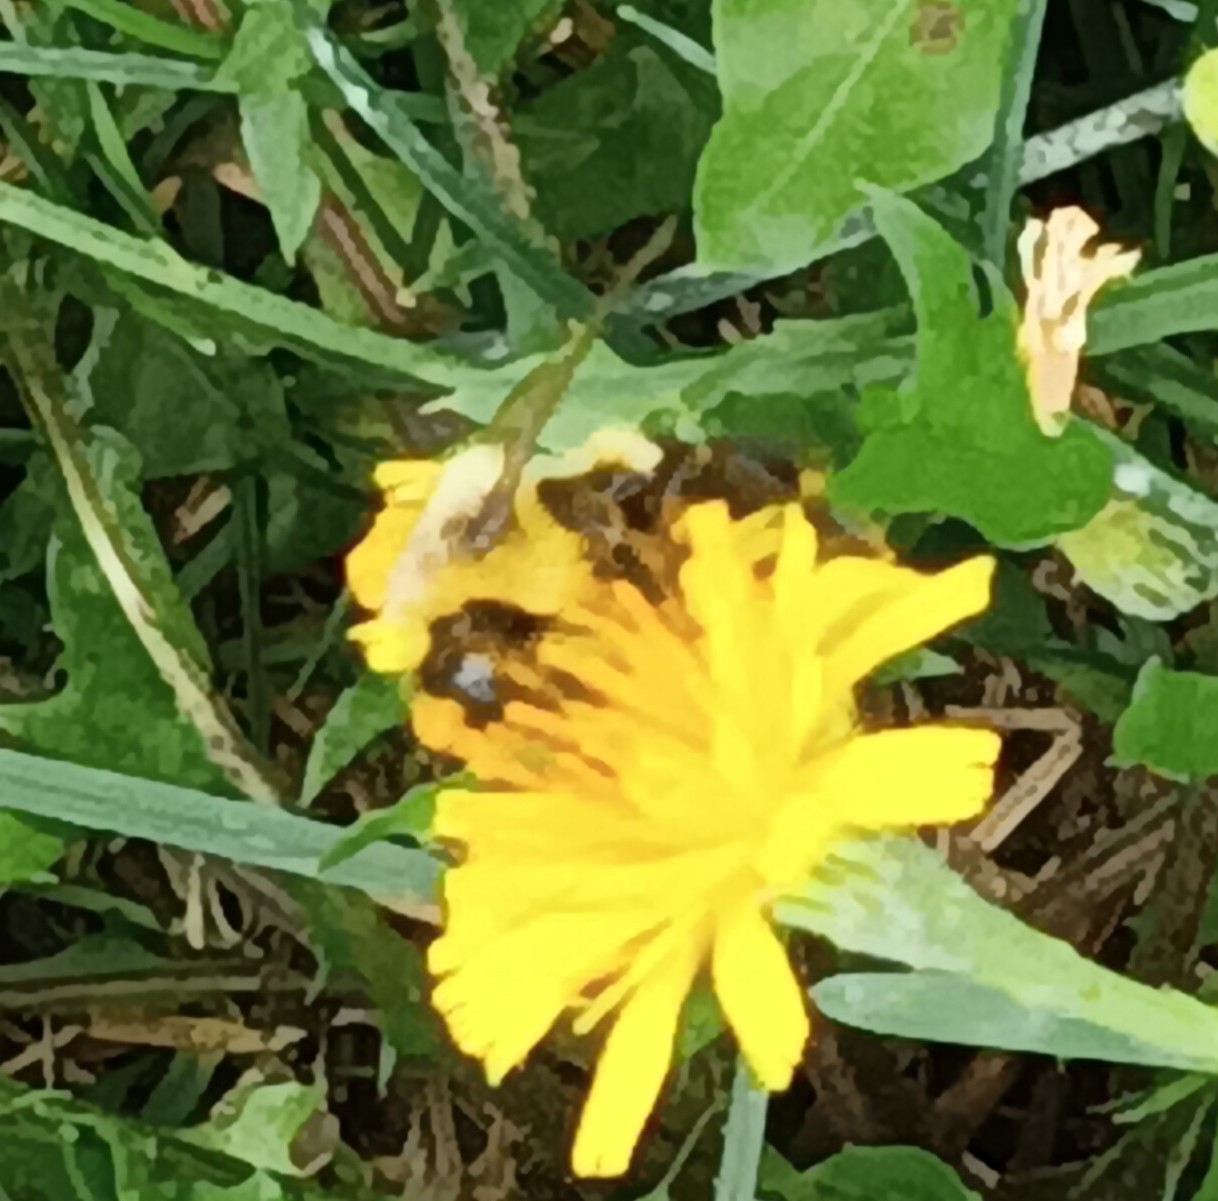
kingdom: Animalia
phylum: Arthropoda
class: Insecta
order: Hymenoptera
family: Apidae
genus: Bombus
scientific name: Bombus impatiens
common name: Common eastern bumble bee
